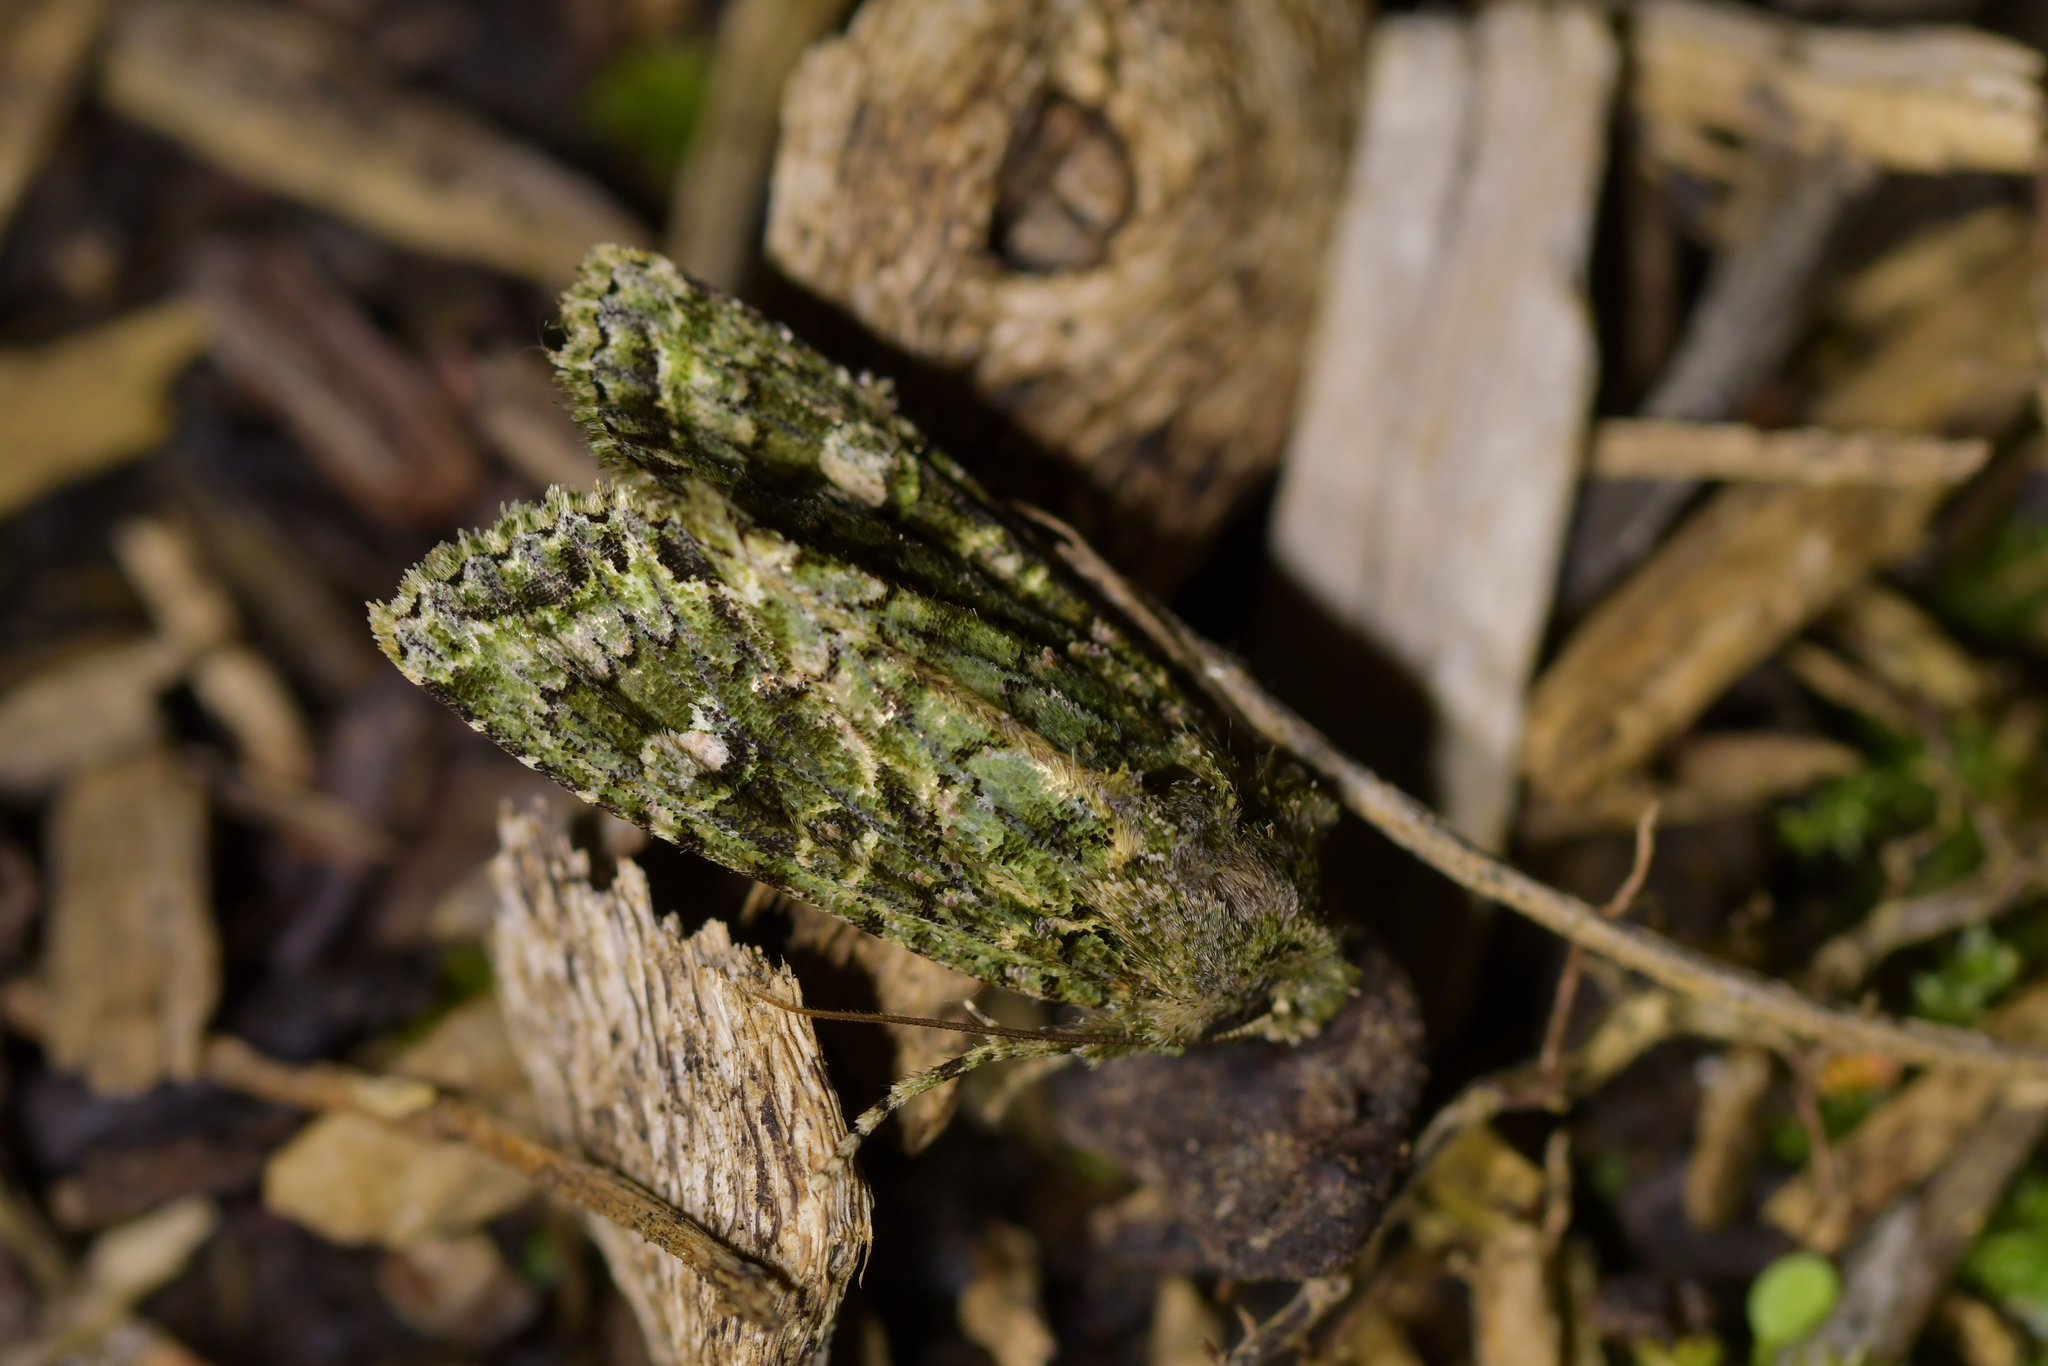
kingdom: Animalia
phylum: Arthropoda
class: Insecta
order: Lepidoptera
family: Noctuidae
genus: Ichneutica
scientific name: Ichneutica
